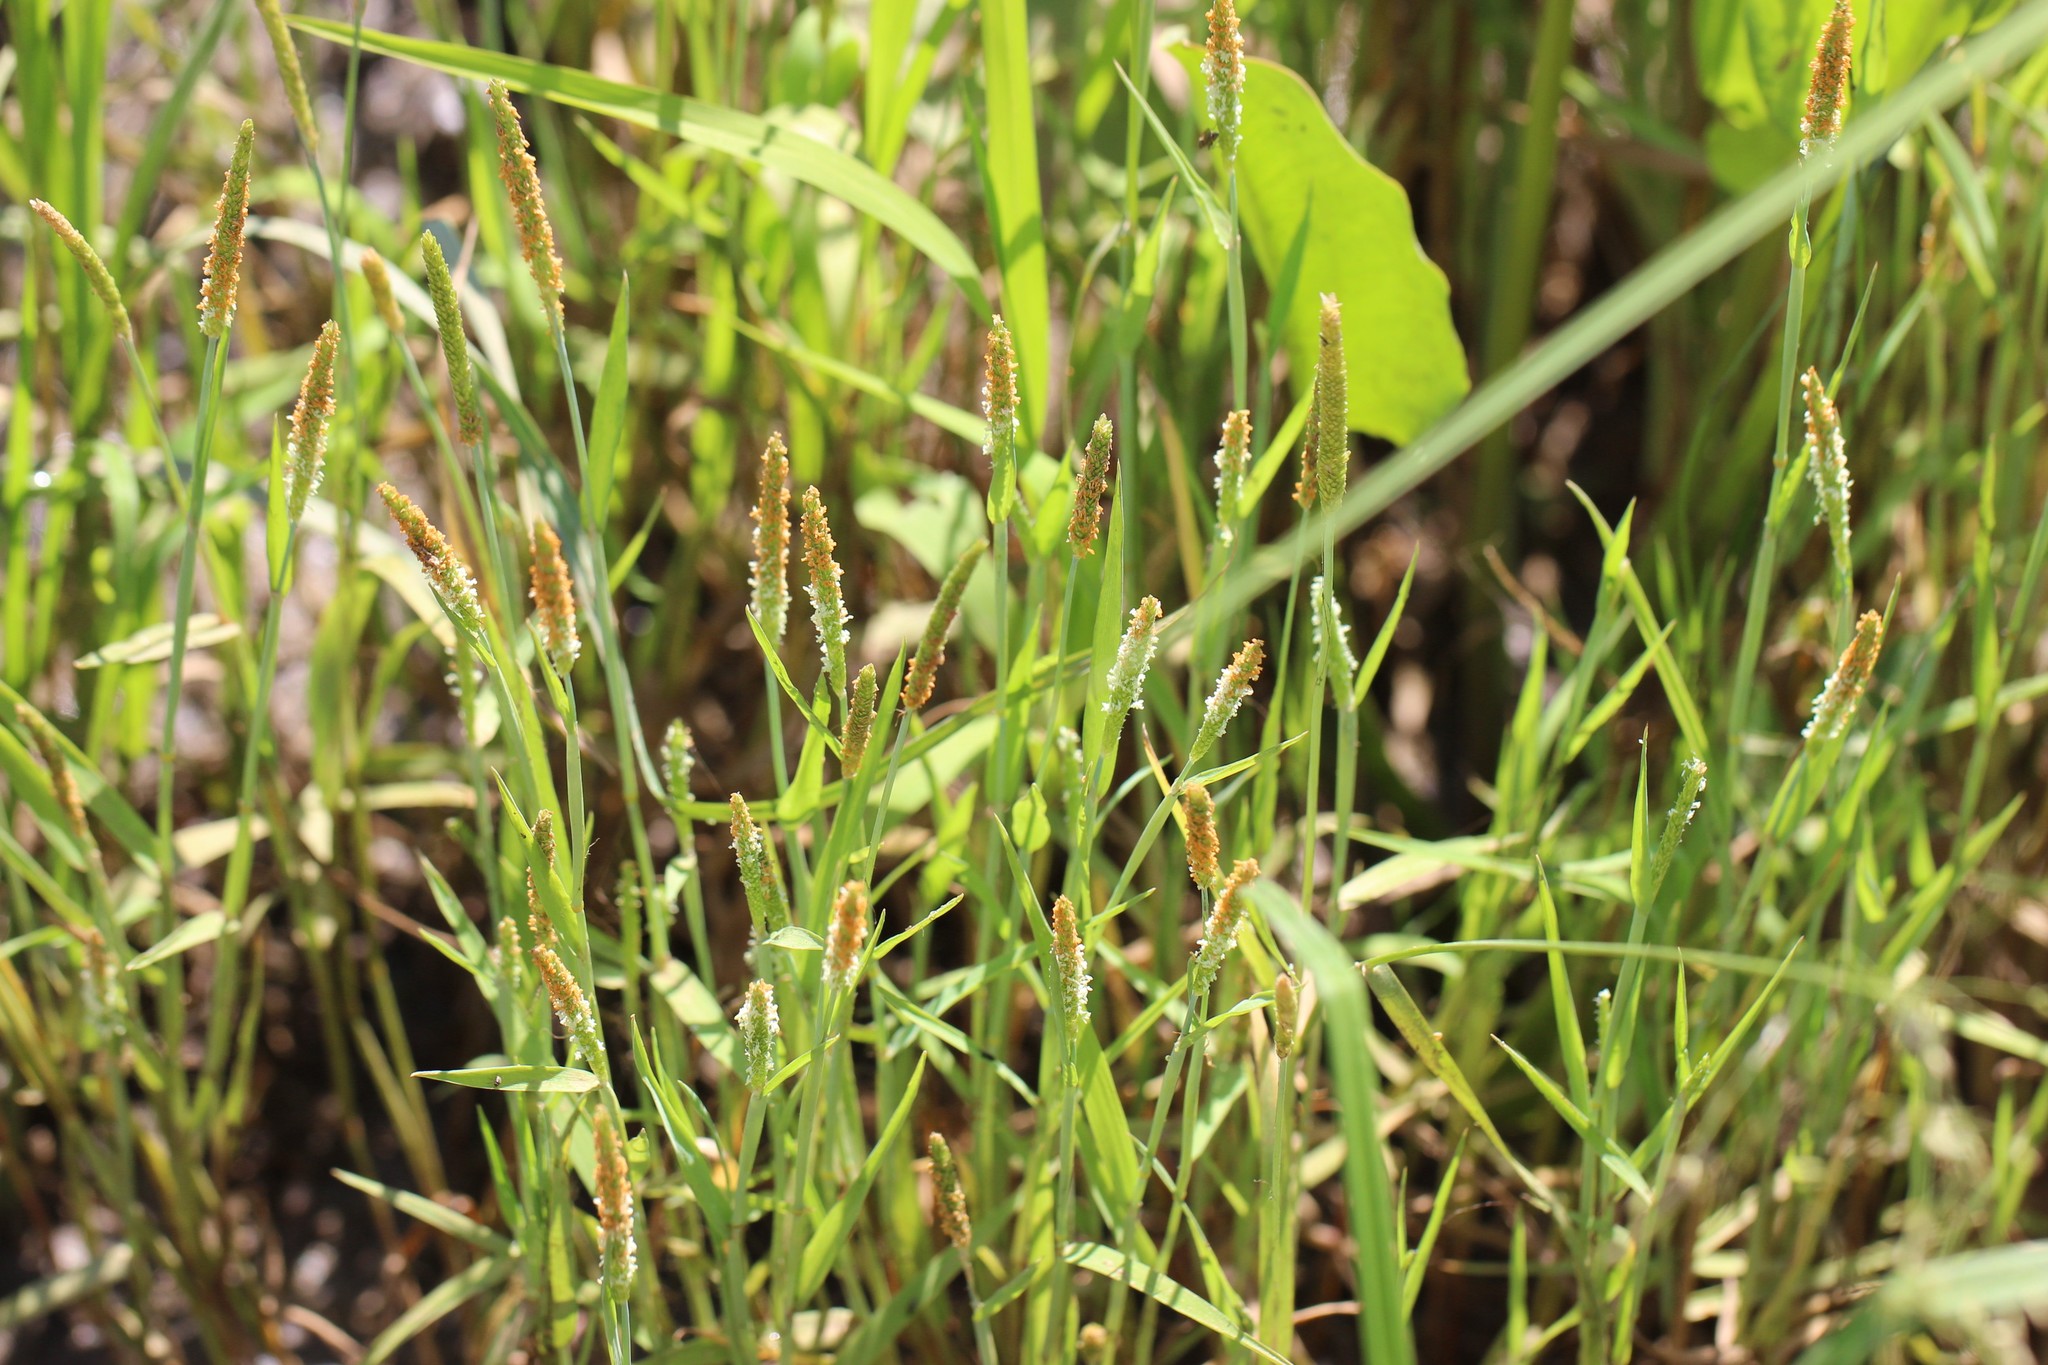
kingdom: Plantae
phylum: Tracheophyta
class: Liliopsida
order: Poales
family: Poaceae
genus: Alopecurus
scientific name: Alopecurus aequalis
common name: Orange foxtail
